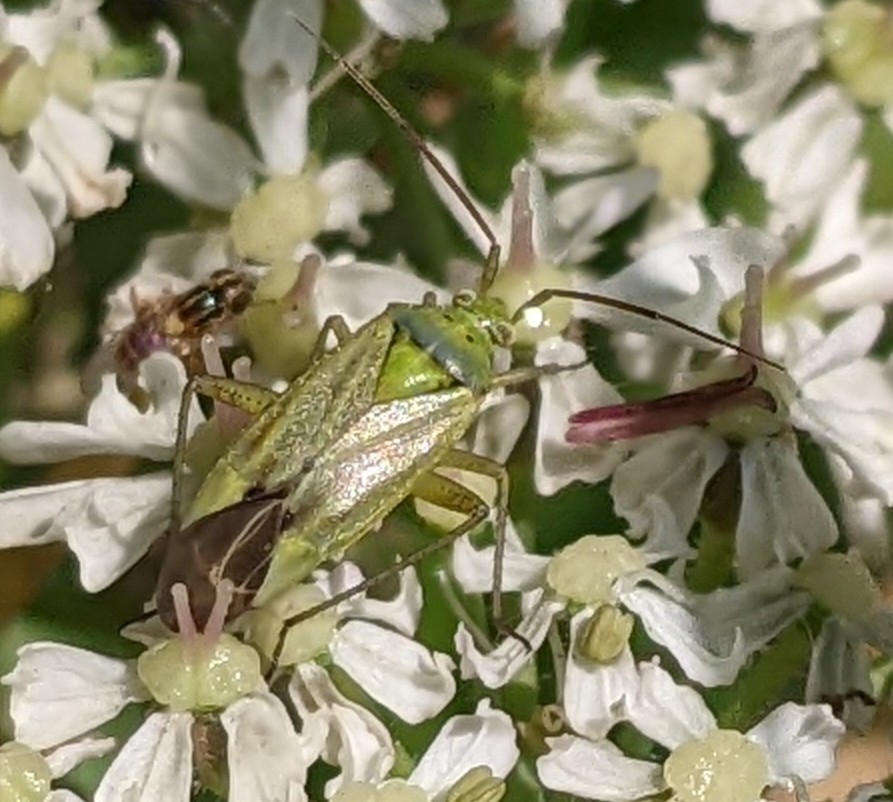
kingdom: Animalia
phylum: Arthropoda
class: Insecta
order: Hemiptera
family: Miridae
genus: Closterotomus
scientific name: Closterotomus norvegicus
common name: Plant bug
